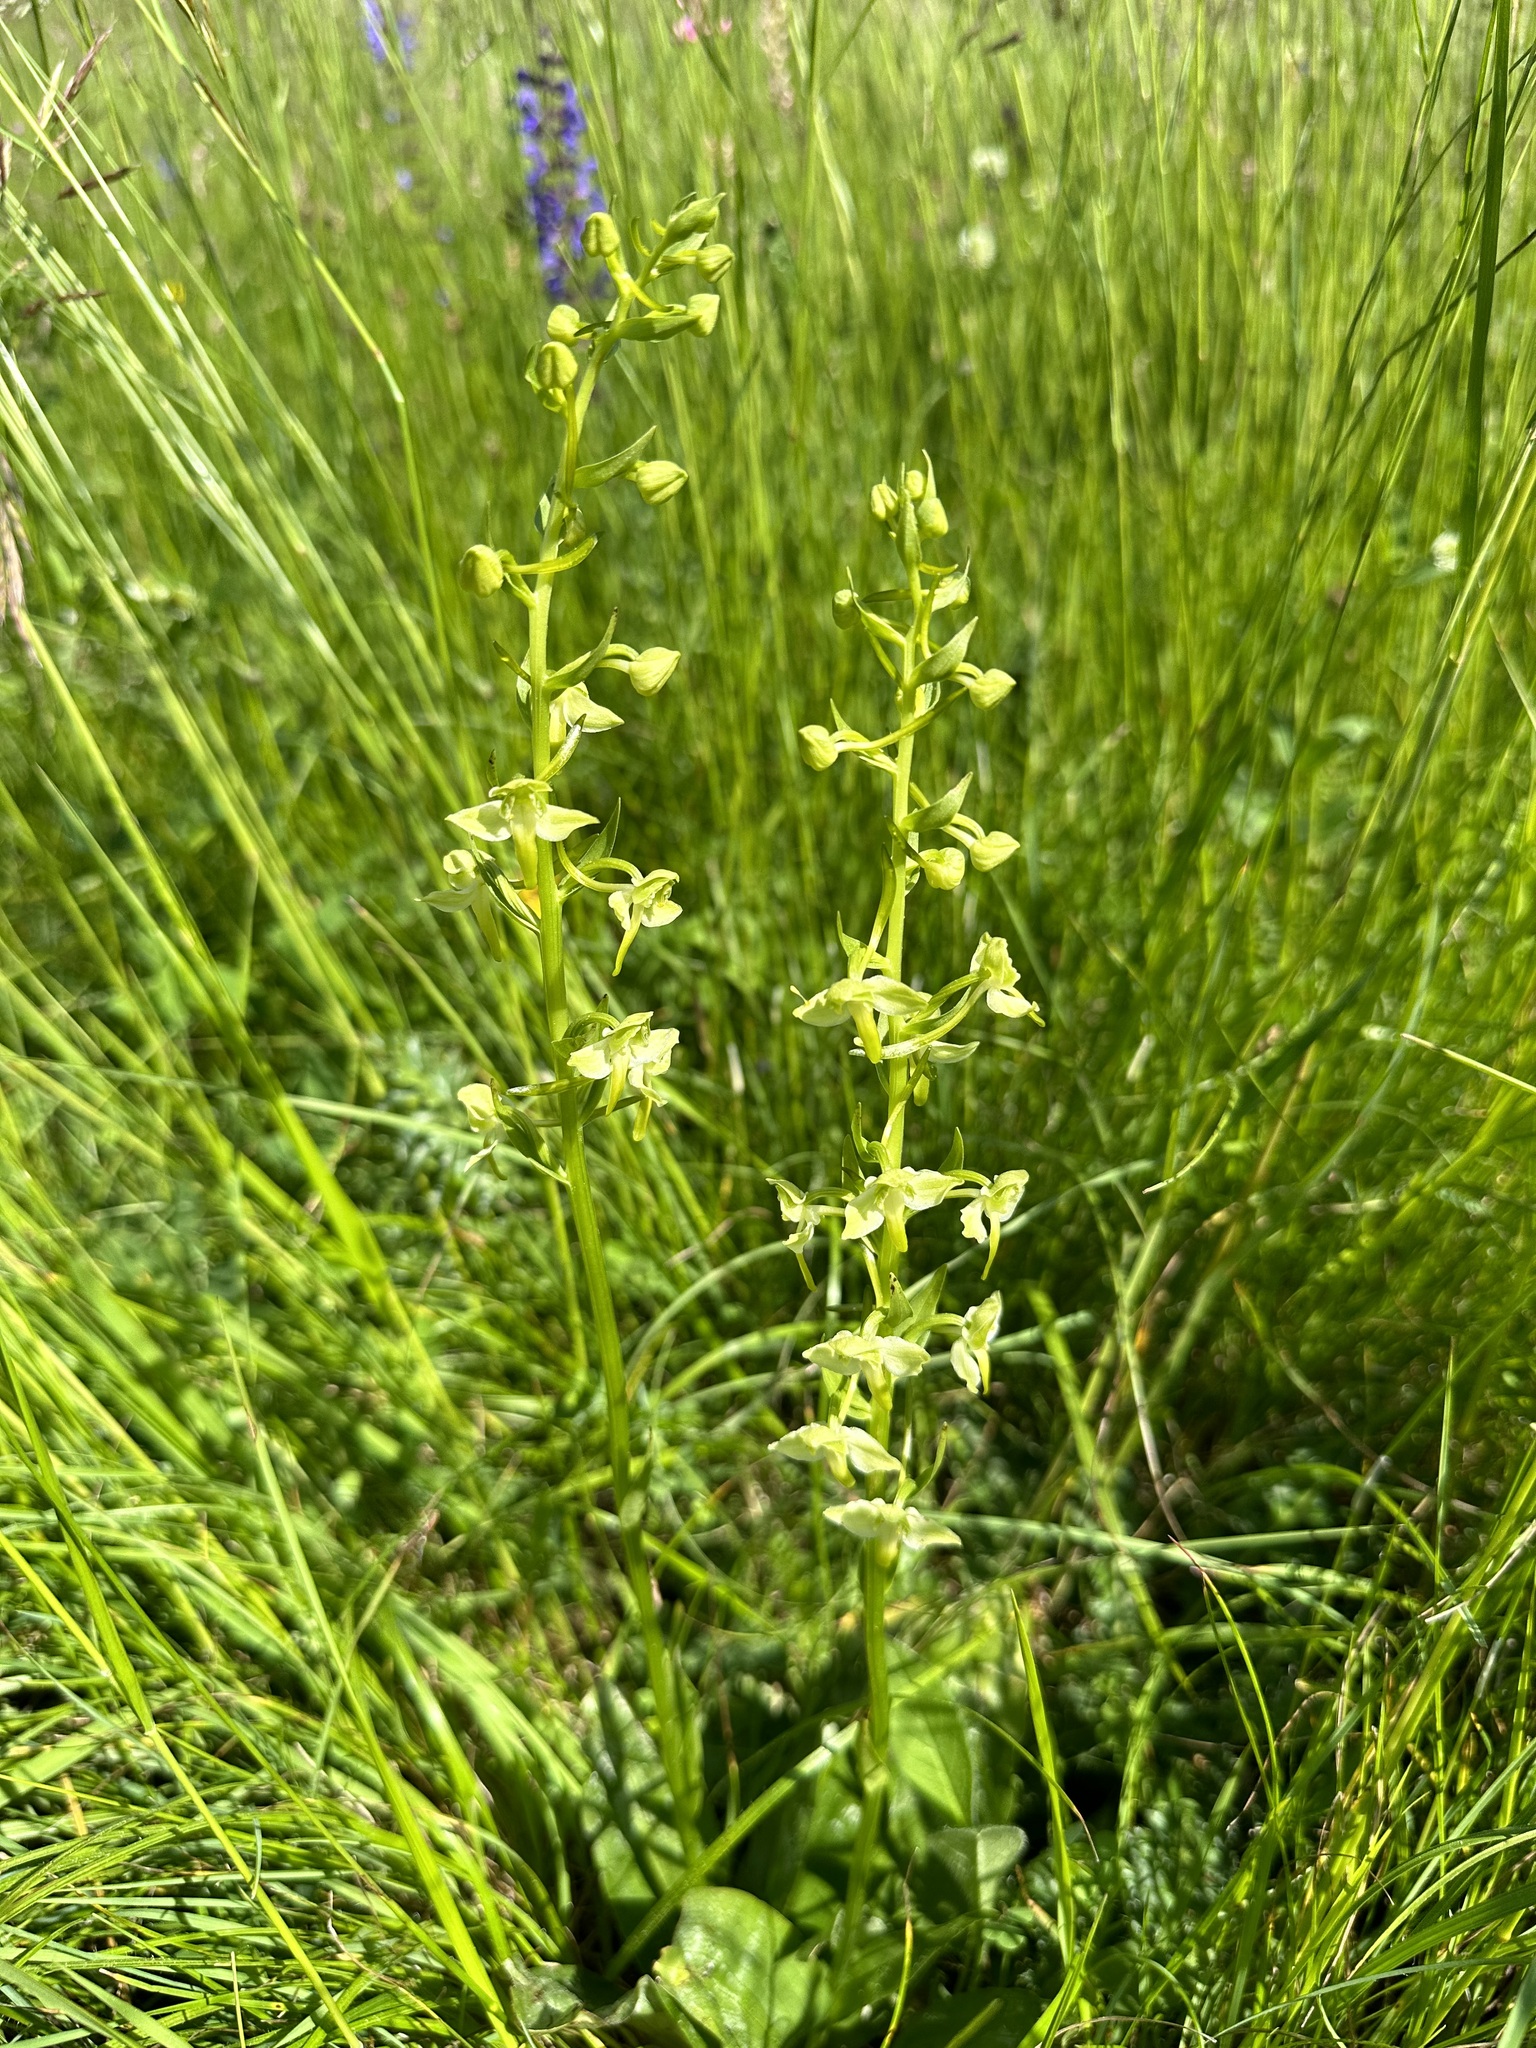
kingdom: Plantae
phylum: Tracheophyta
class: Liliopsida
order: Asparagales
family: Orchidaceae
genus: Platanthera
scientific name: Platanthera chlorantha
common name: Greater butterfly-orchid
